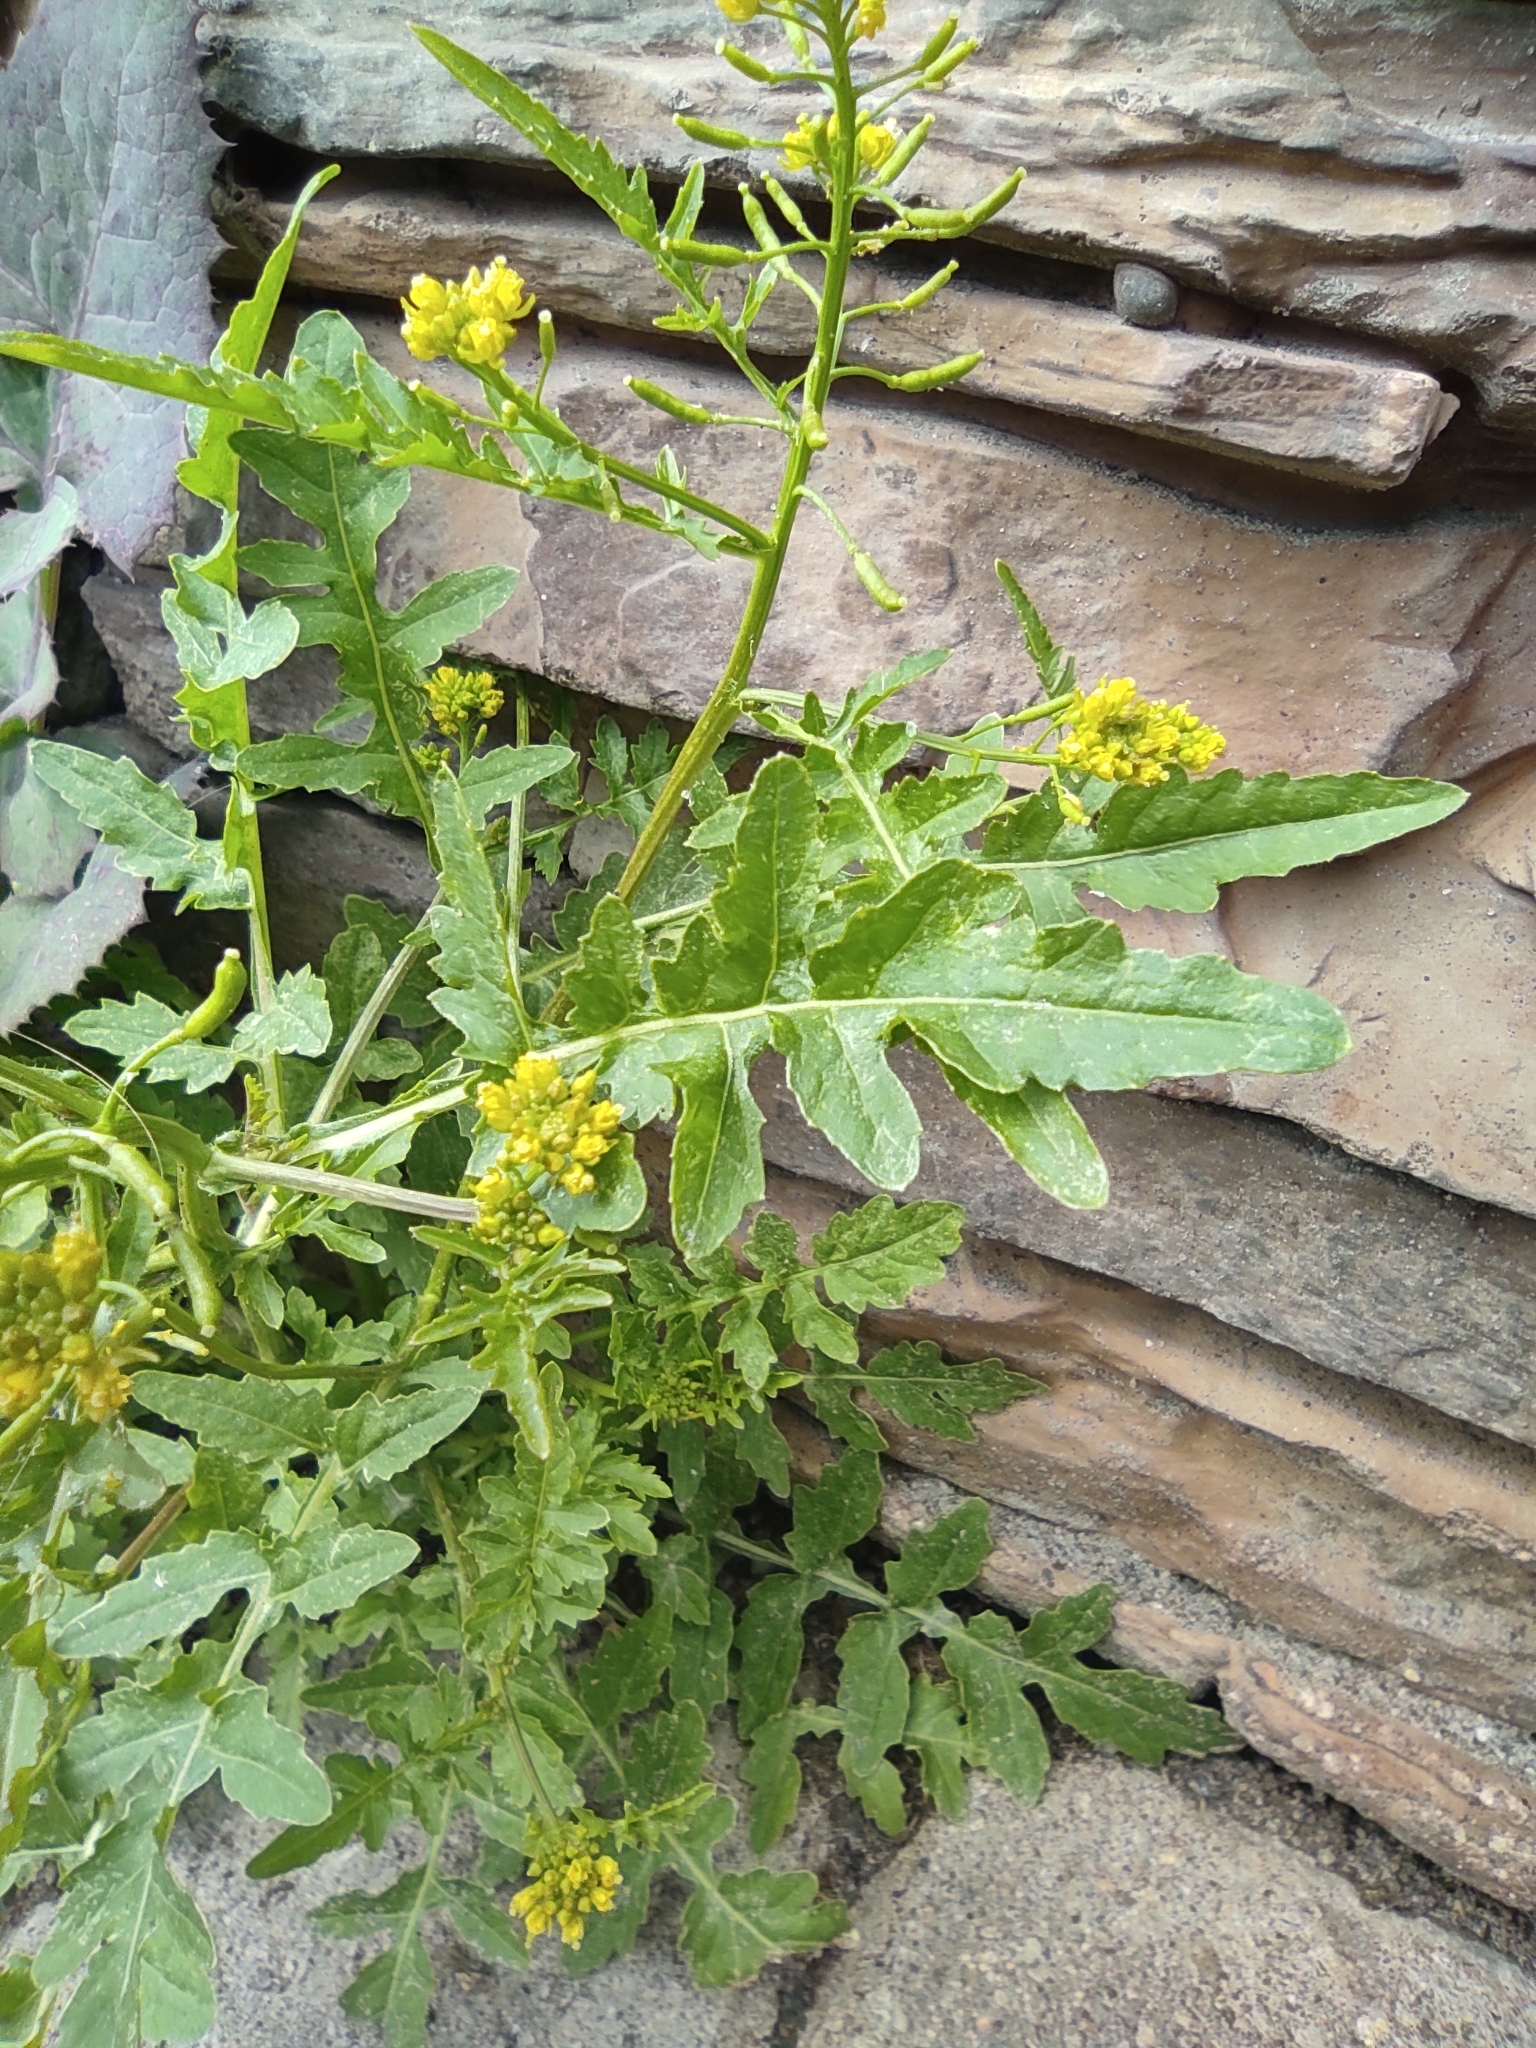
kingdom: Plantae
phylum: Tracheophyta
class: Magnoliopsida
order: Brassicales
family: Brassicaceae
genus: Rorippa
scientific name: Rorippa palustris
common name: Marsh yellow-cress
